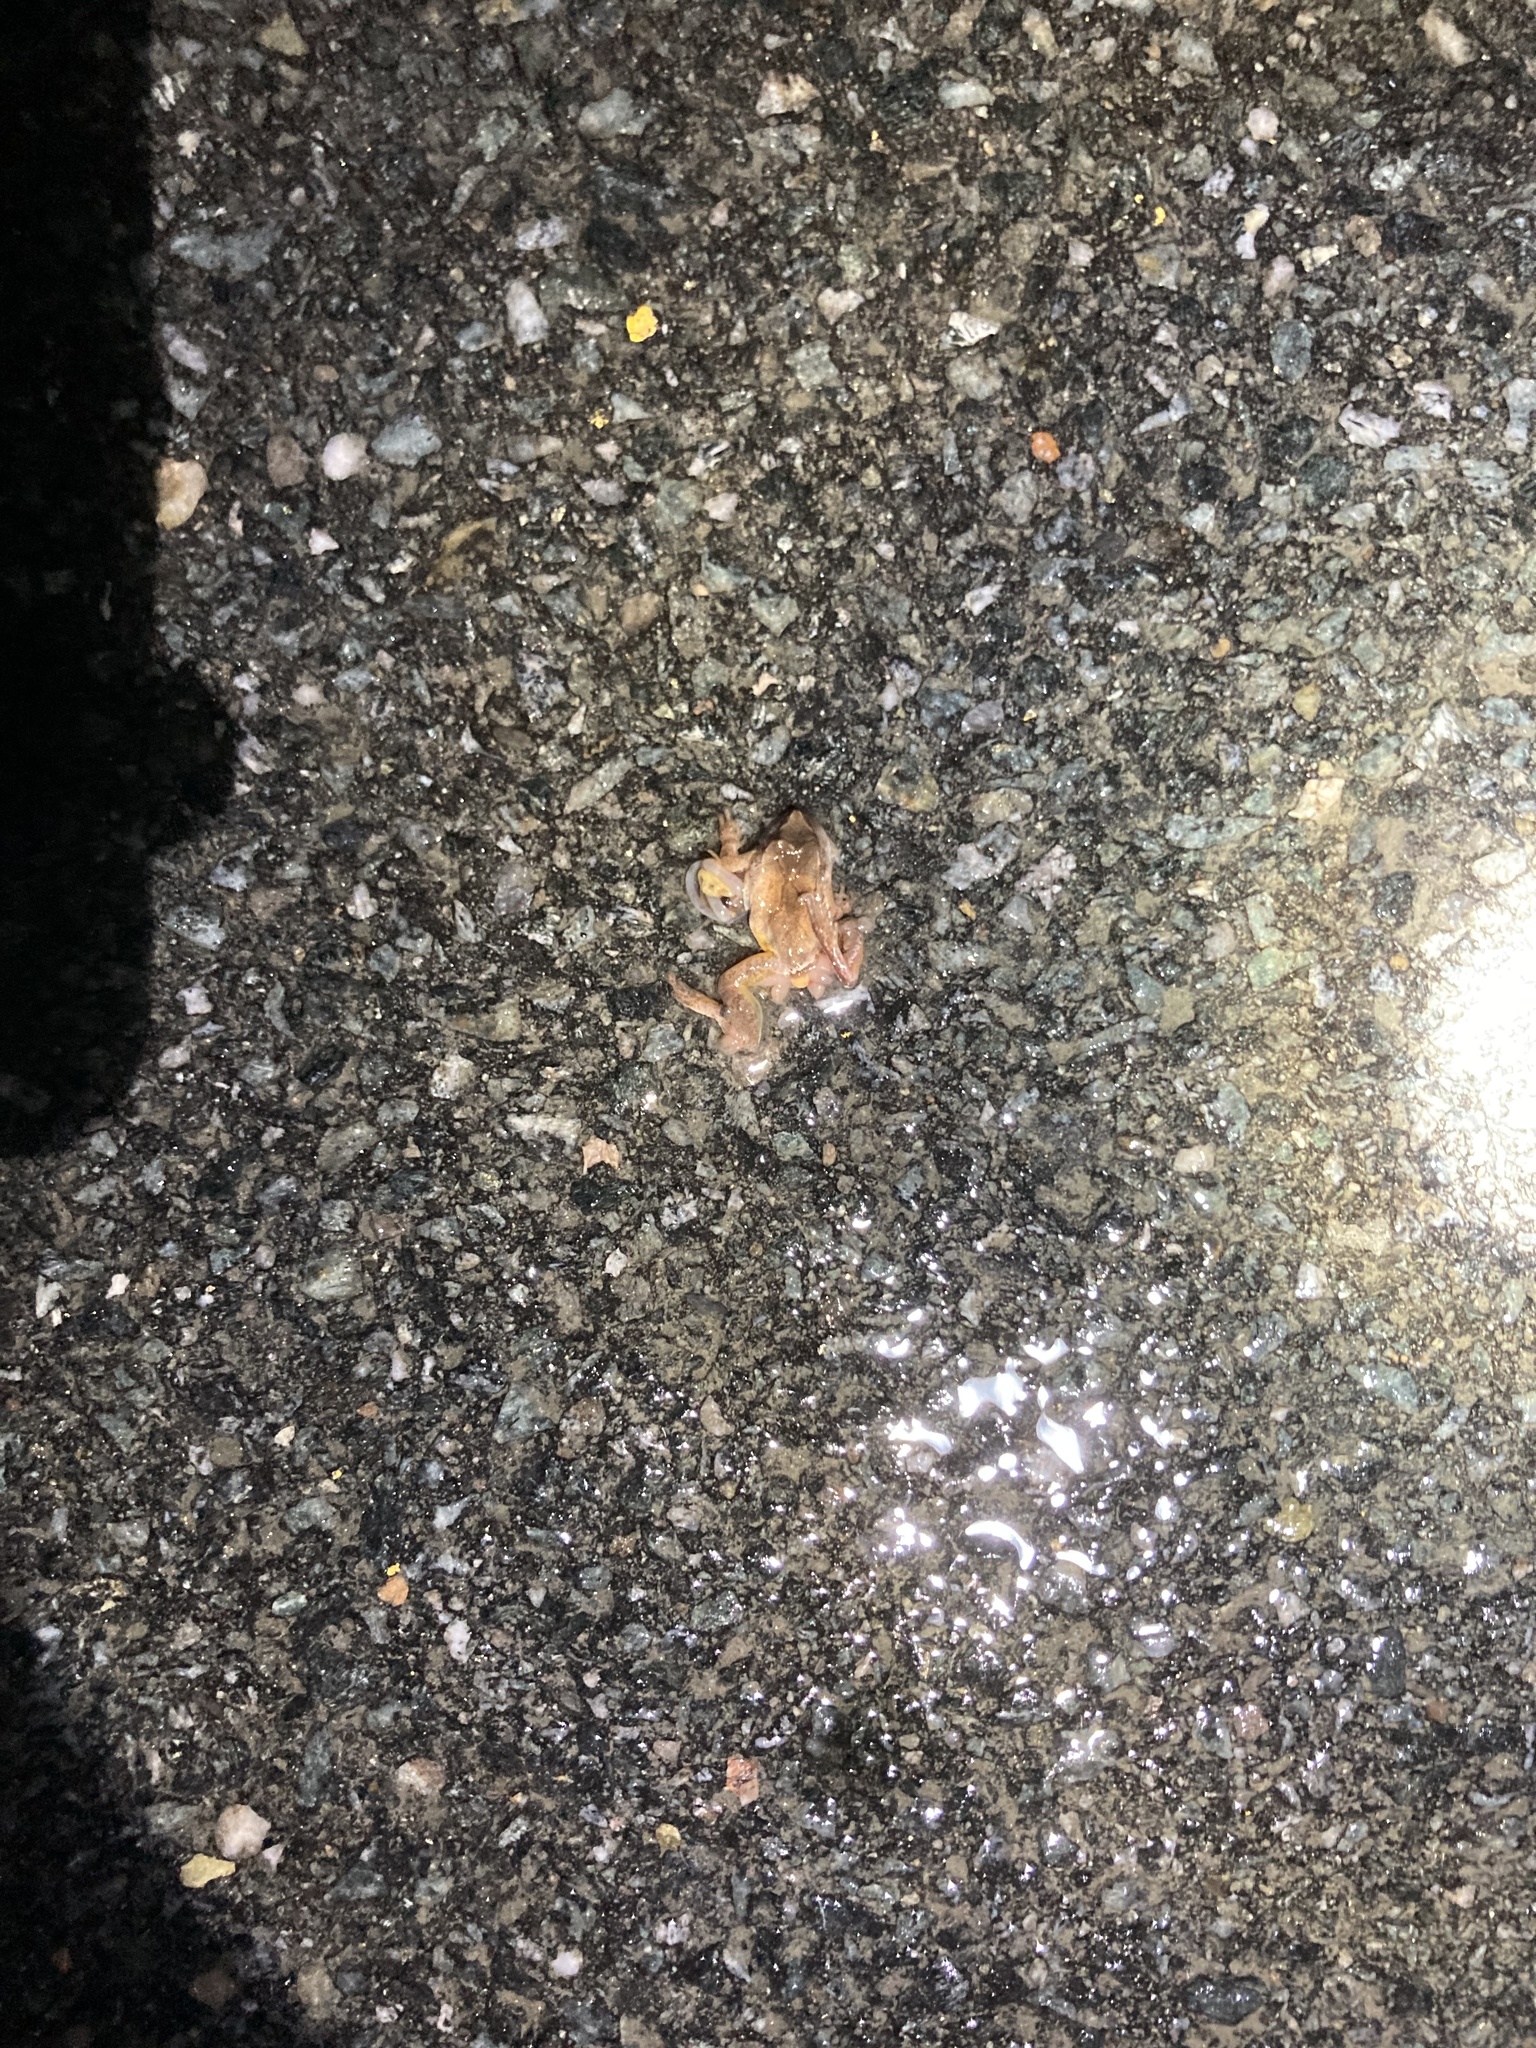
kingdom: Animalia
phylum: Chordata
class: Amphibia
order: Anura
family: Hylidae
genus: Pseudacris
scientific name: Pseudacris crucifer
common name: Spring peeper
